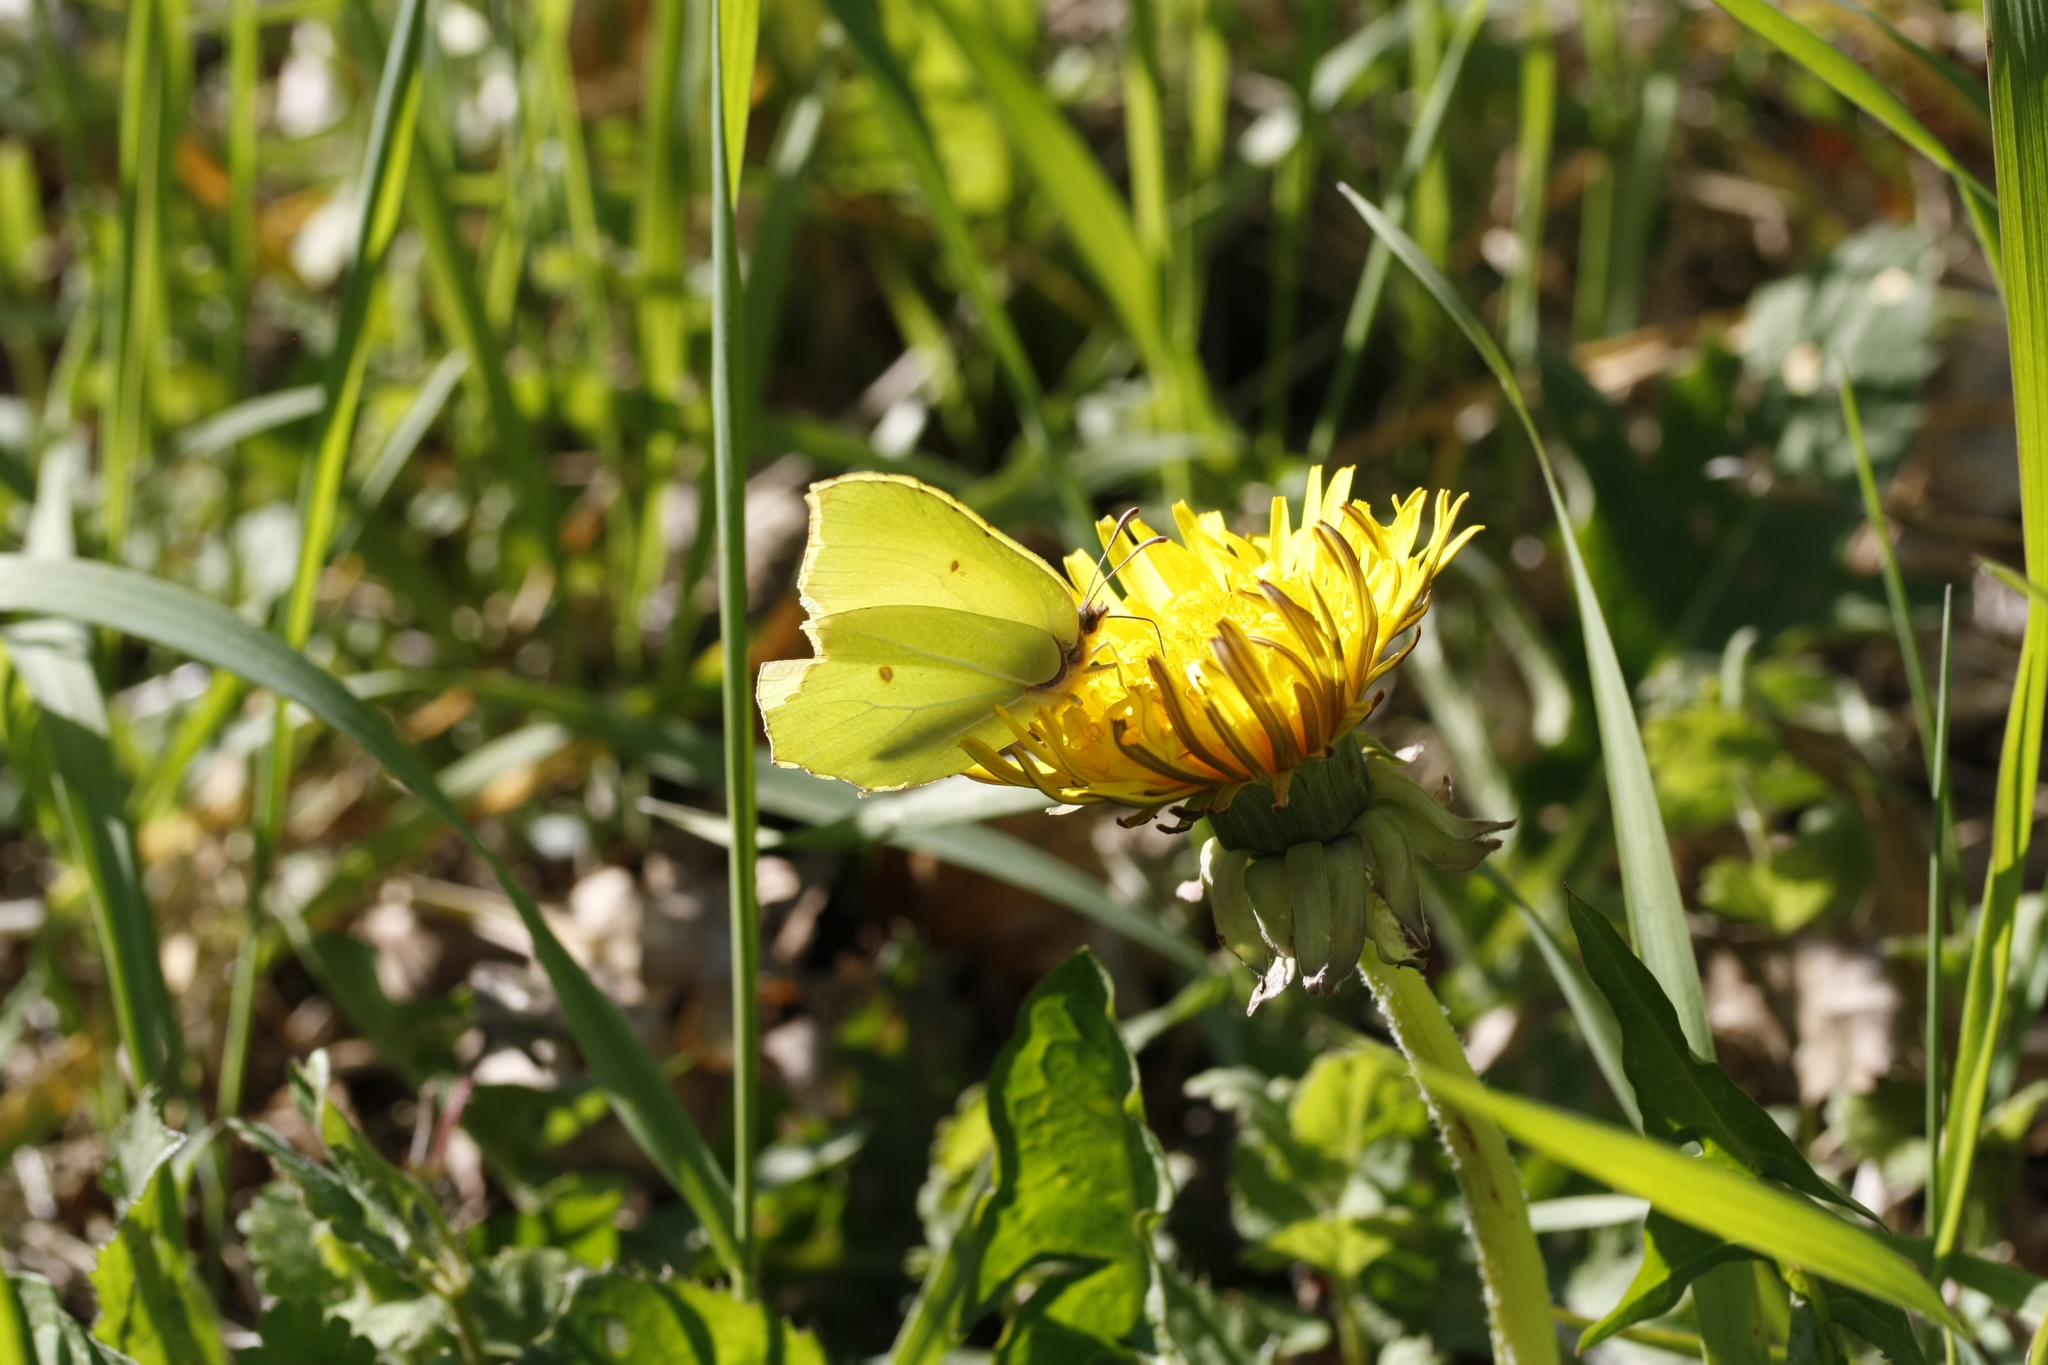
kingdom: Animalia
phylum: Arthropoda
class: Insecta
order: Lepidoptera
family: Pieridae
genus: Gonepteryx
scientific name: Gonepteryx rhamni
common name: Brimstone
